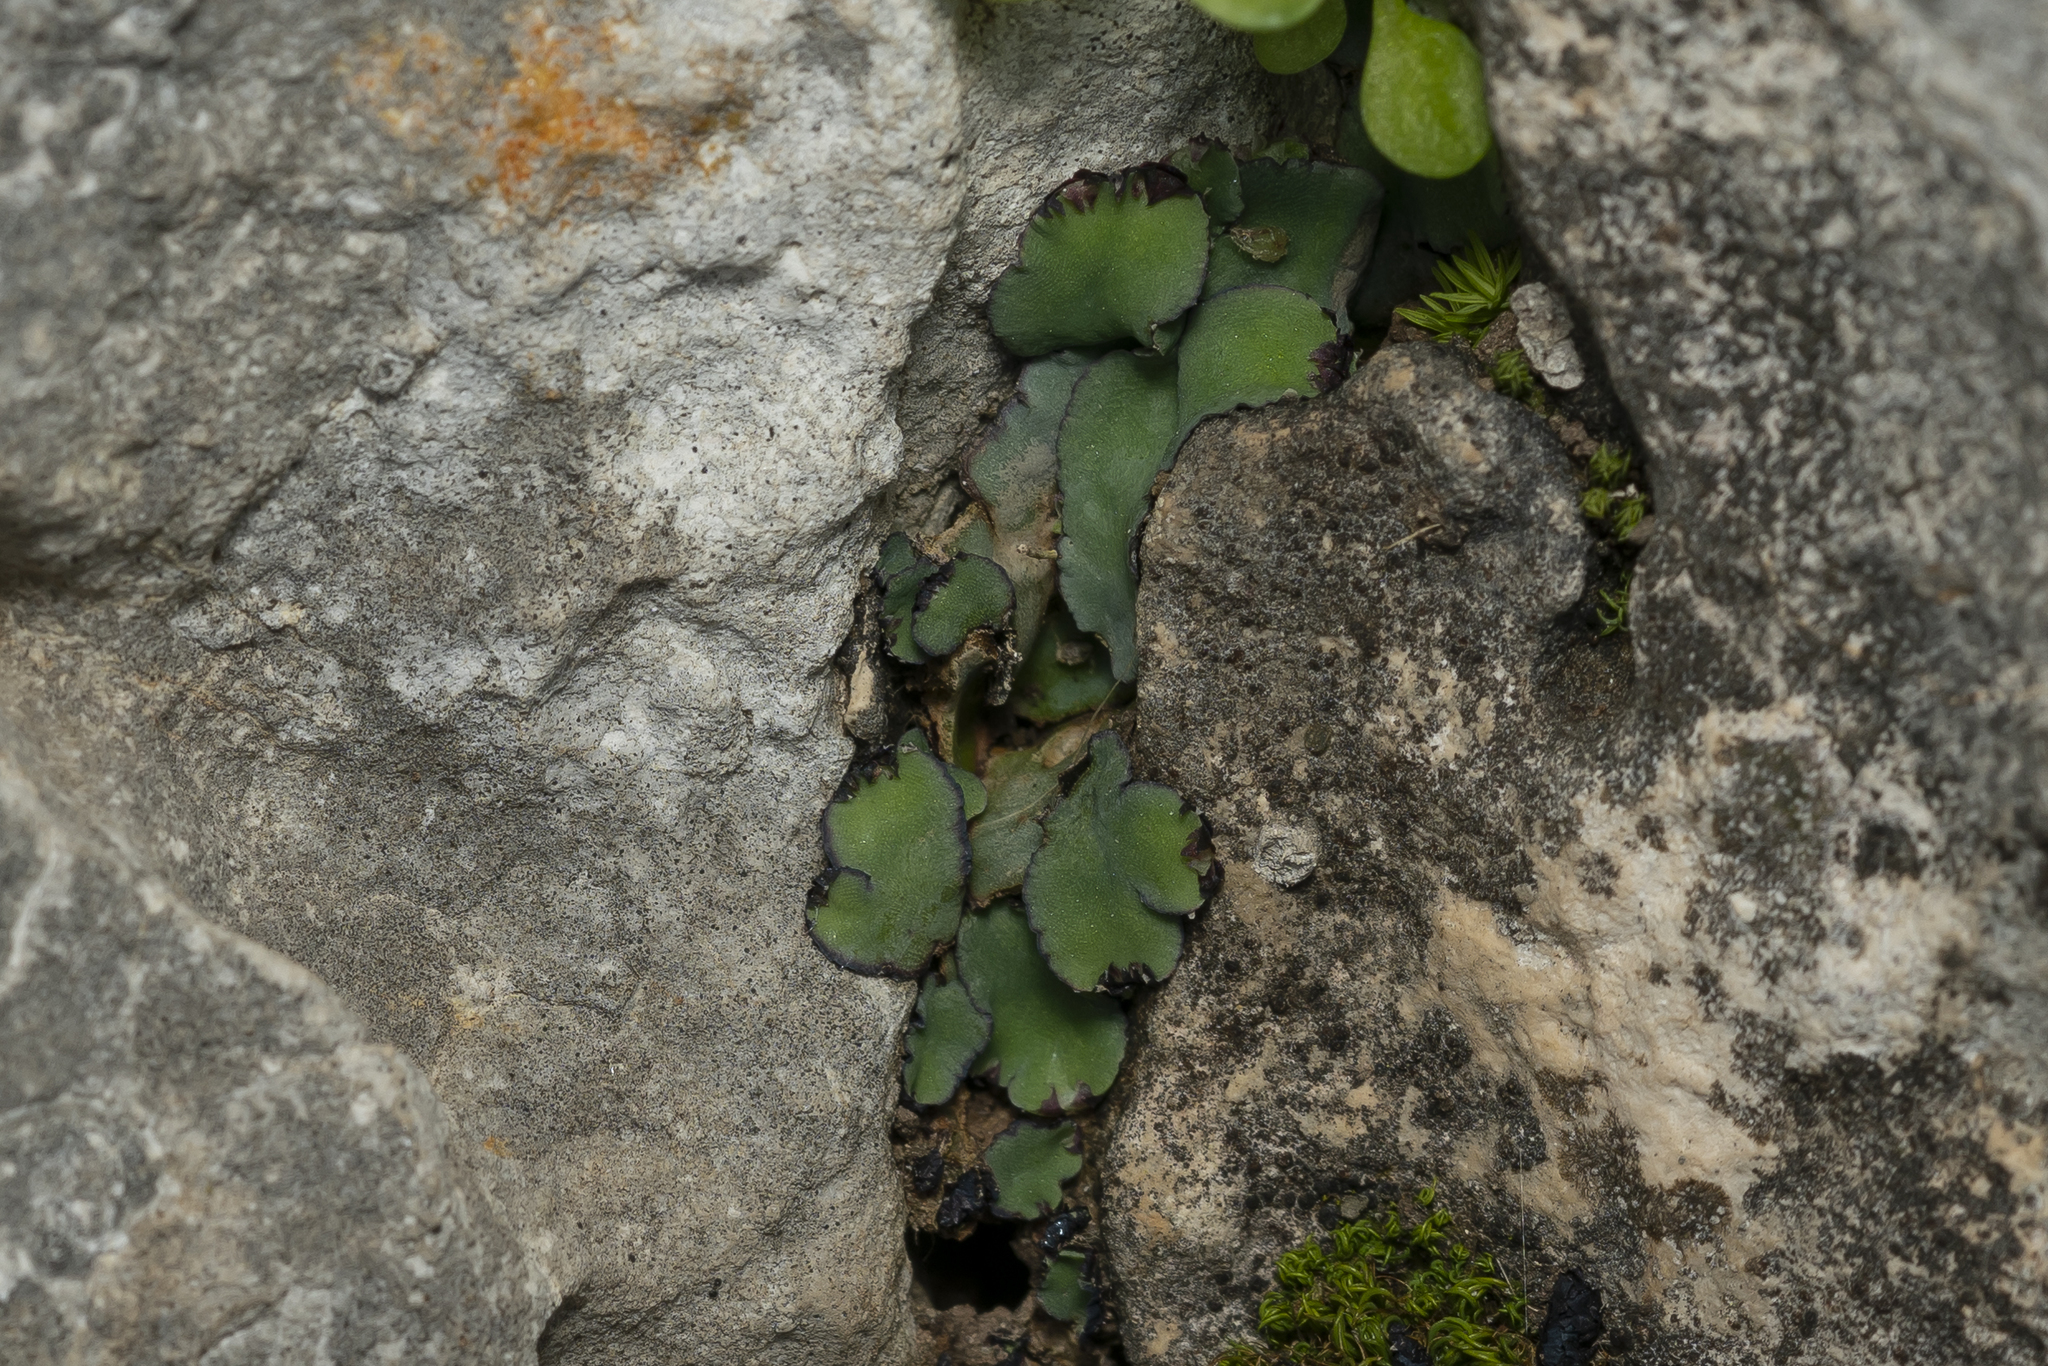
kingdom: Plantae
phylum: Marchantiophyta
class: Marchantiopsida
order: Marchantiales
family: Aytoniaceae
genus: Plagiochasma
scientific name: Plagiochasma rupestre
